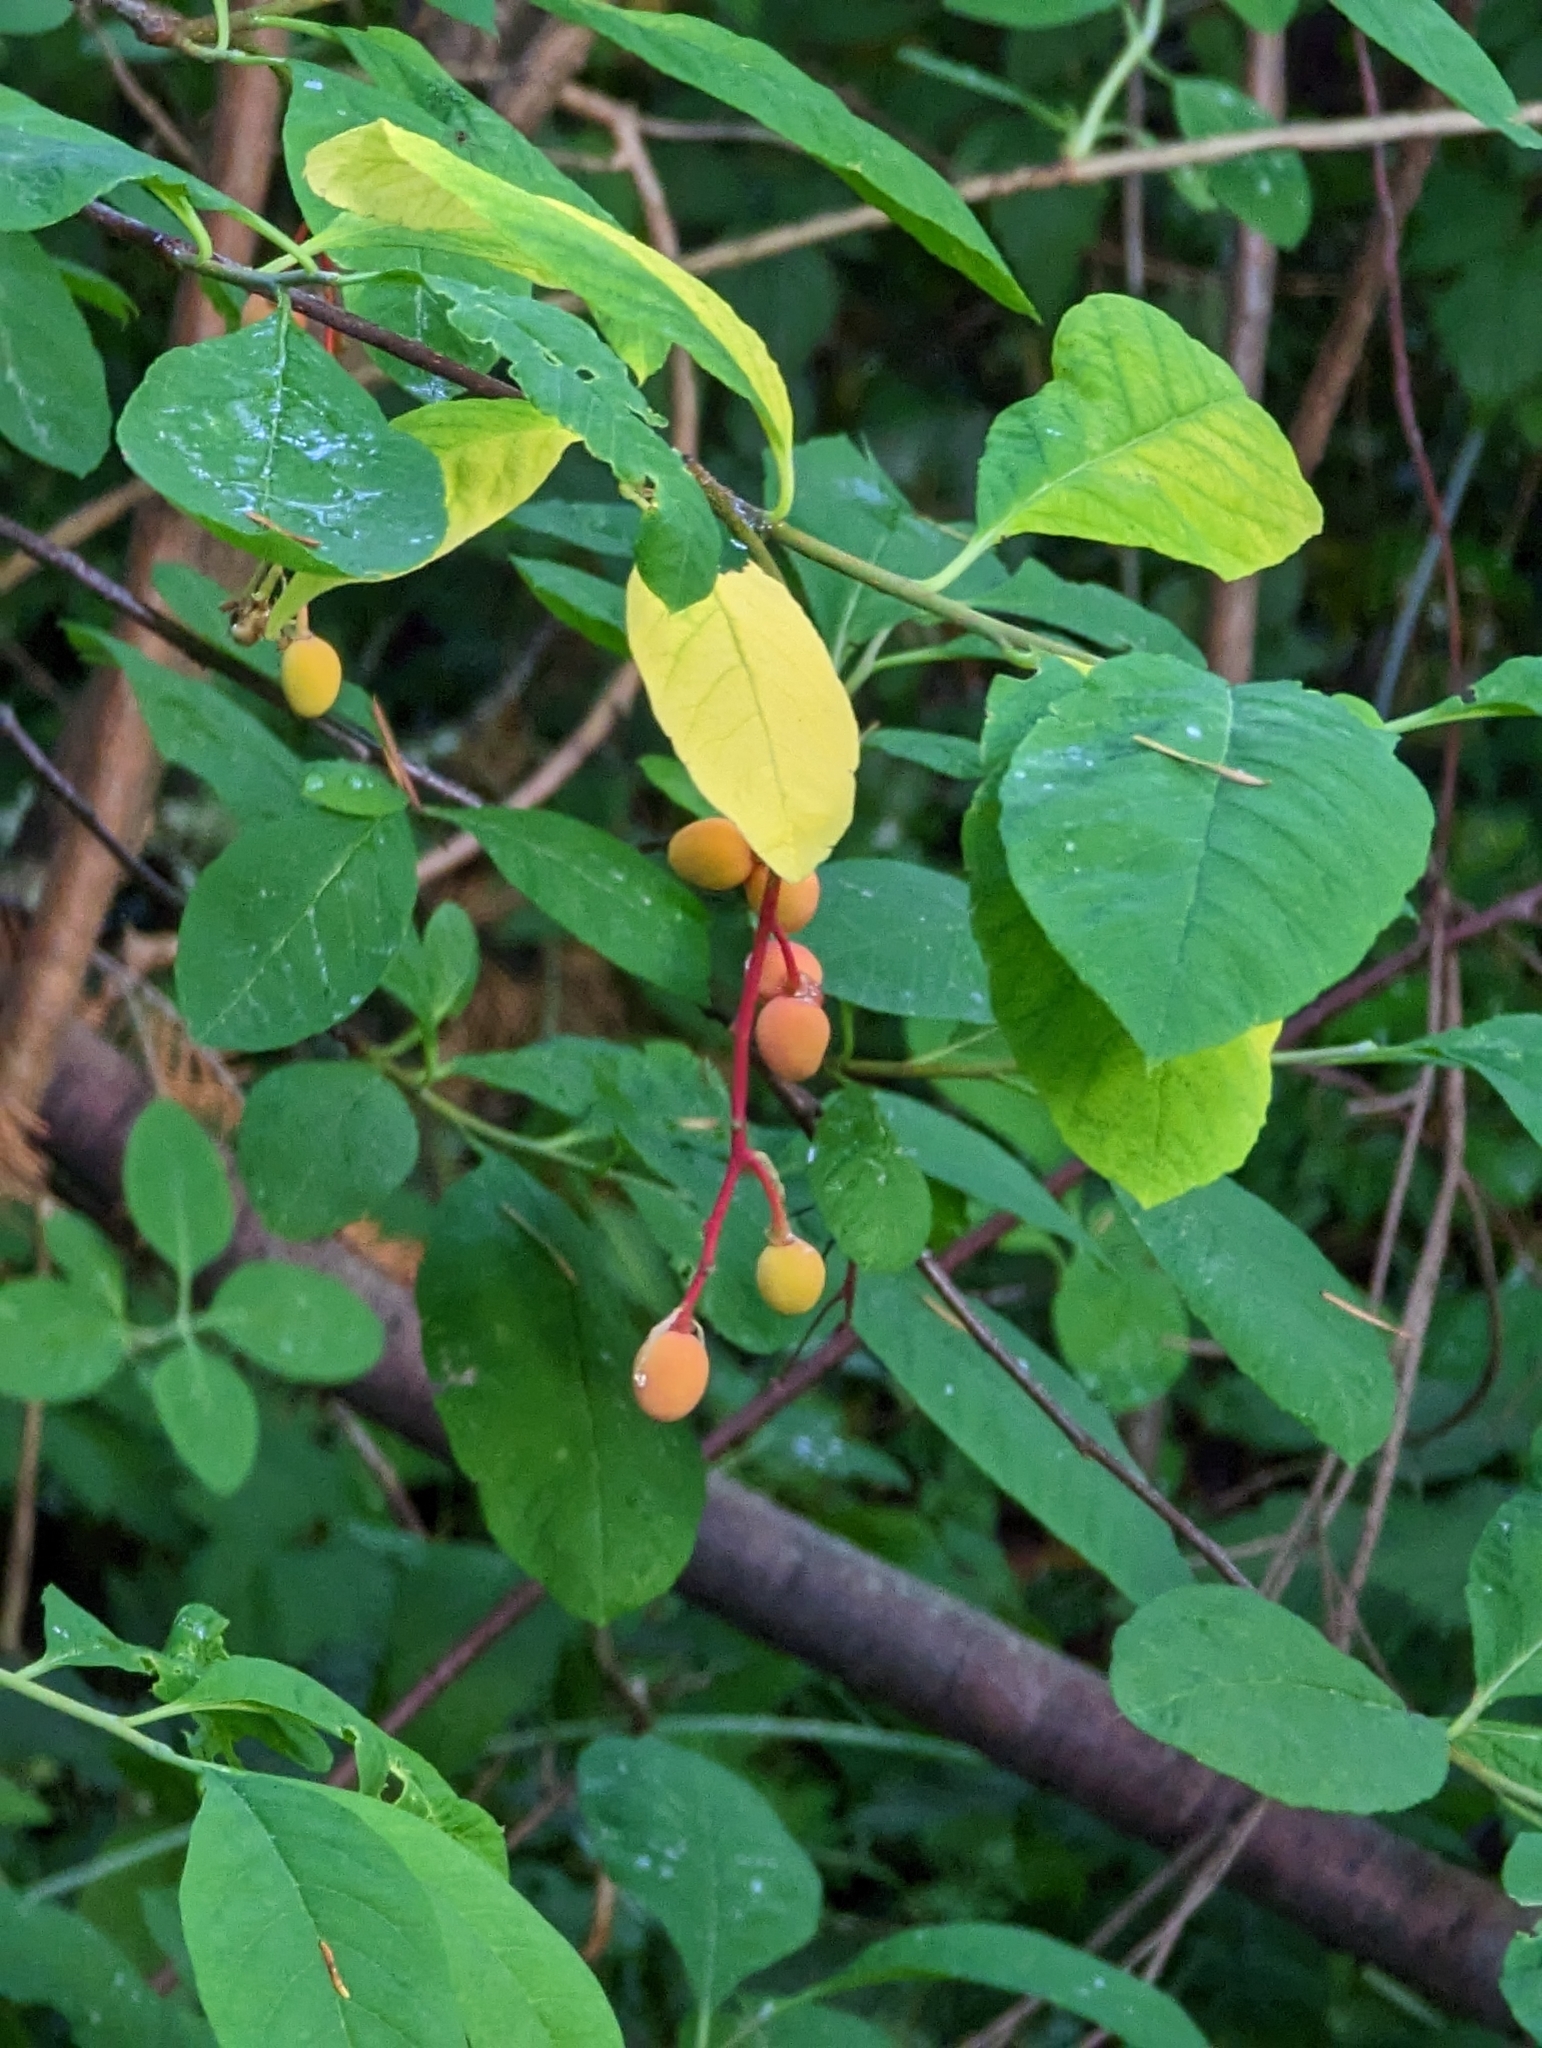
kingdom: Plantae
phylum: Tracheophyta
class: Magnoliopsida
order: Rosales
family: Rosaceae
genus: Oemleria
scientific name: Oemleria cerasiformis
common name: Osoberry
